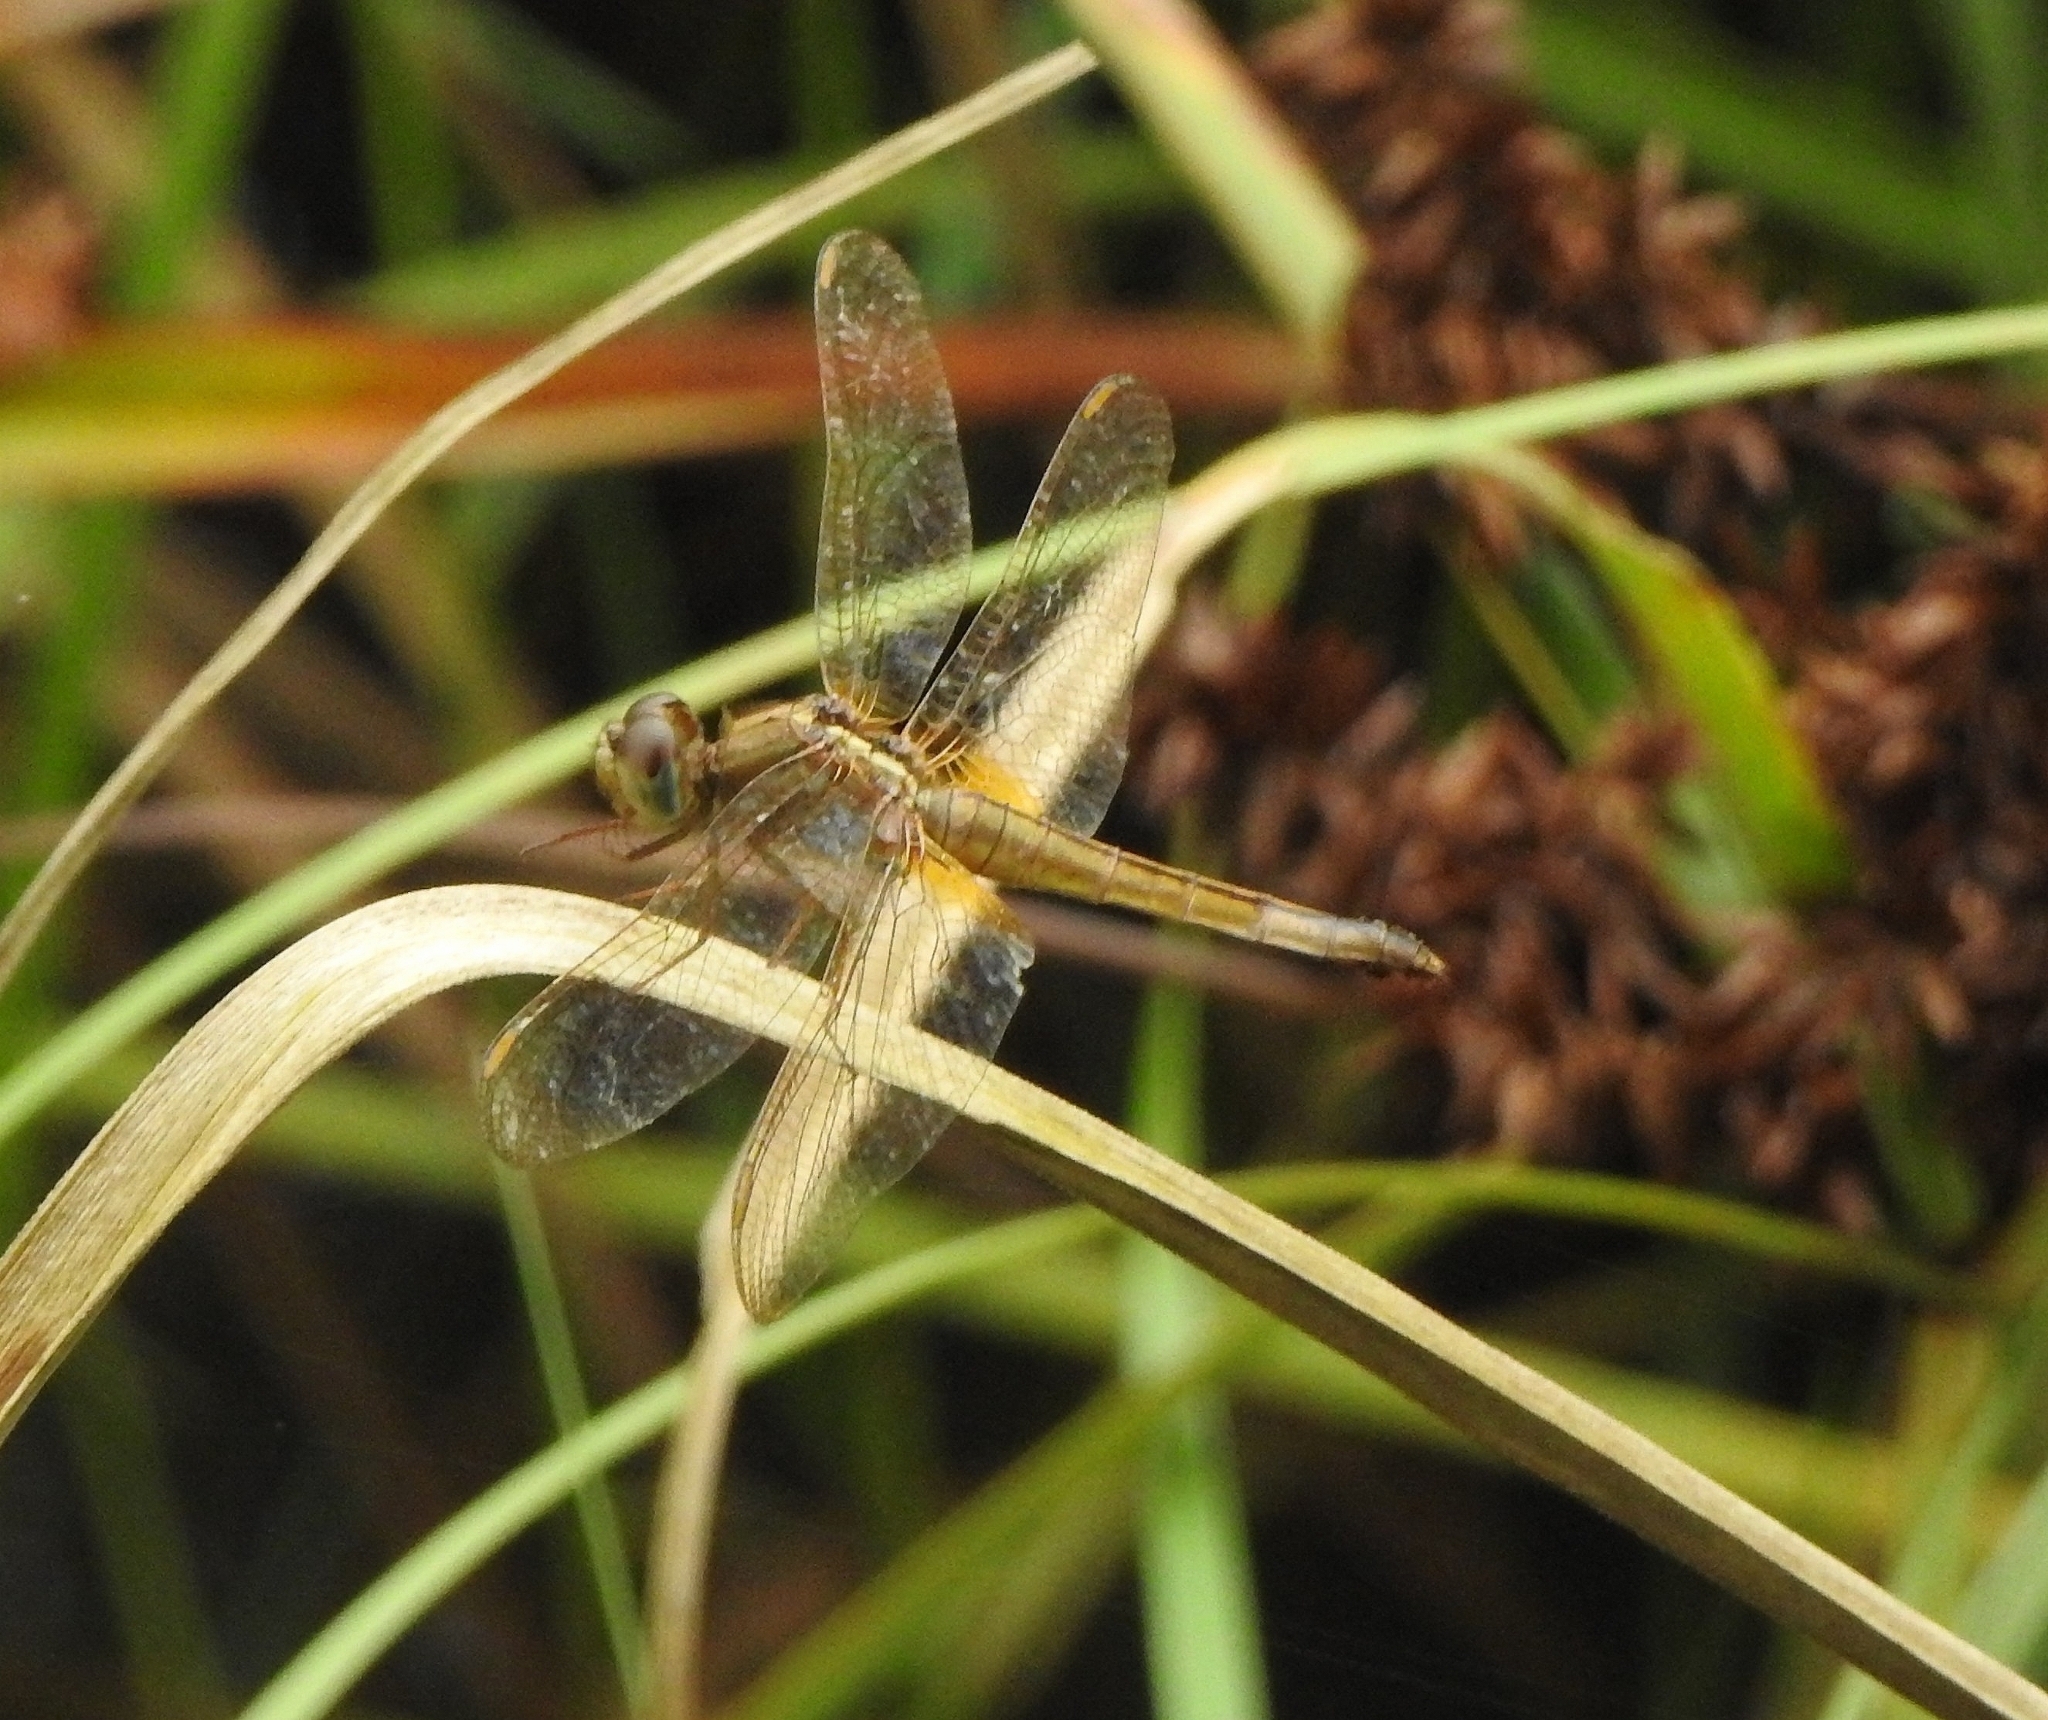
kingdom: Animalia
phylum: Arthropoda
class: Insecta
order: Odonata
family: Libellulidae
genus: Crocothemis
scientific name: Crocothemis servilia
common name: Scarlet skimmer
